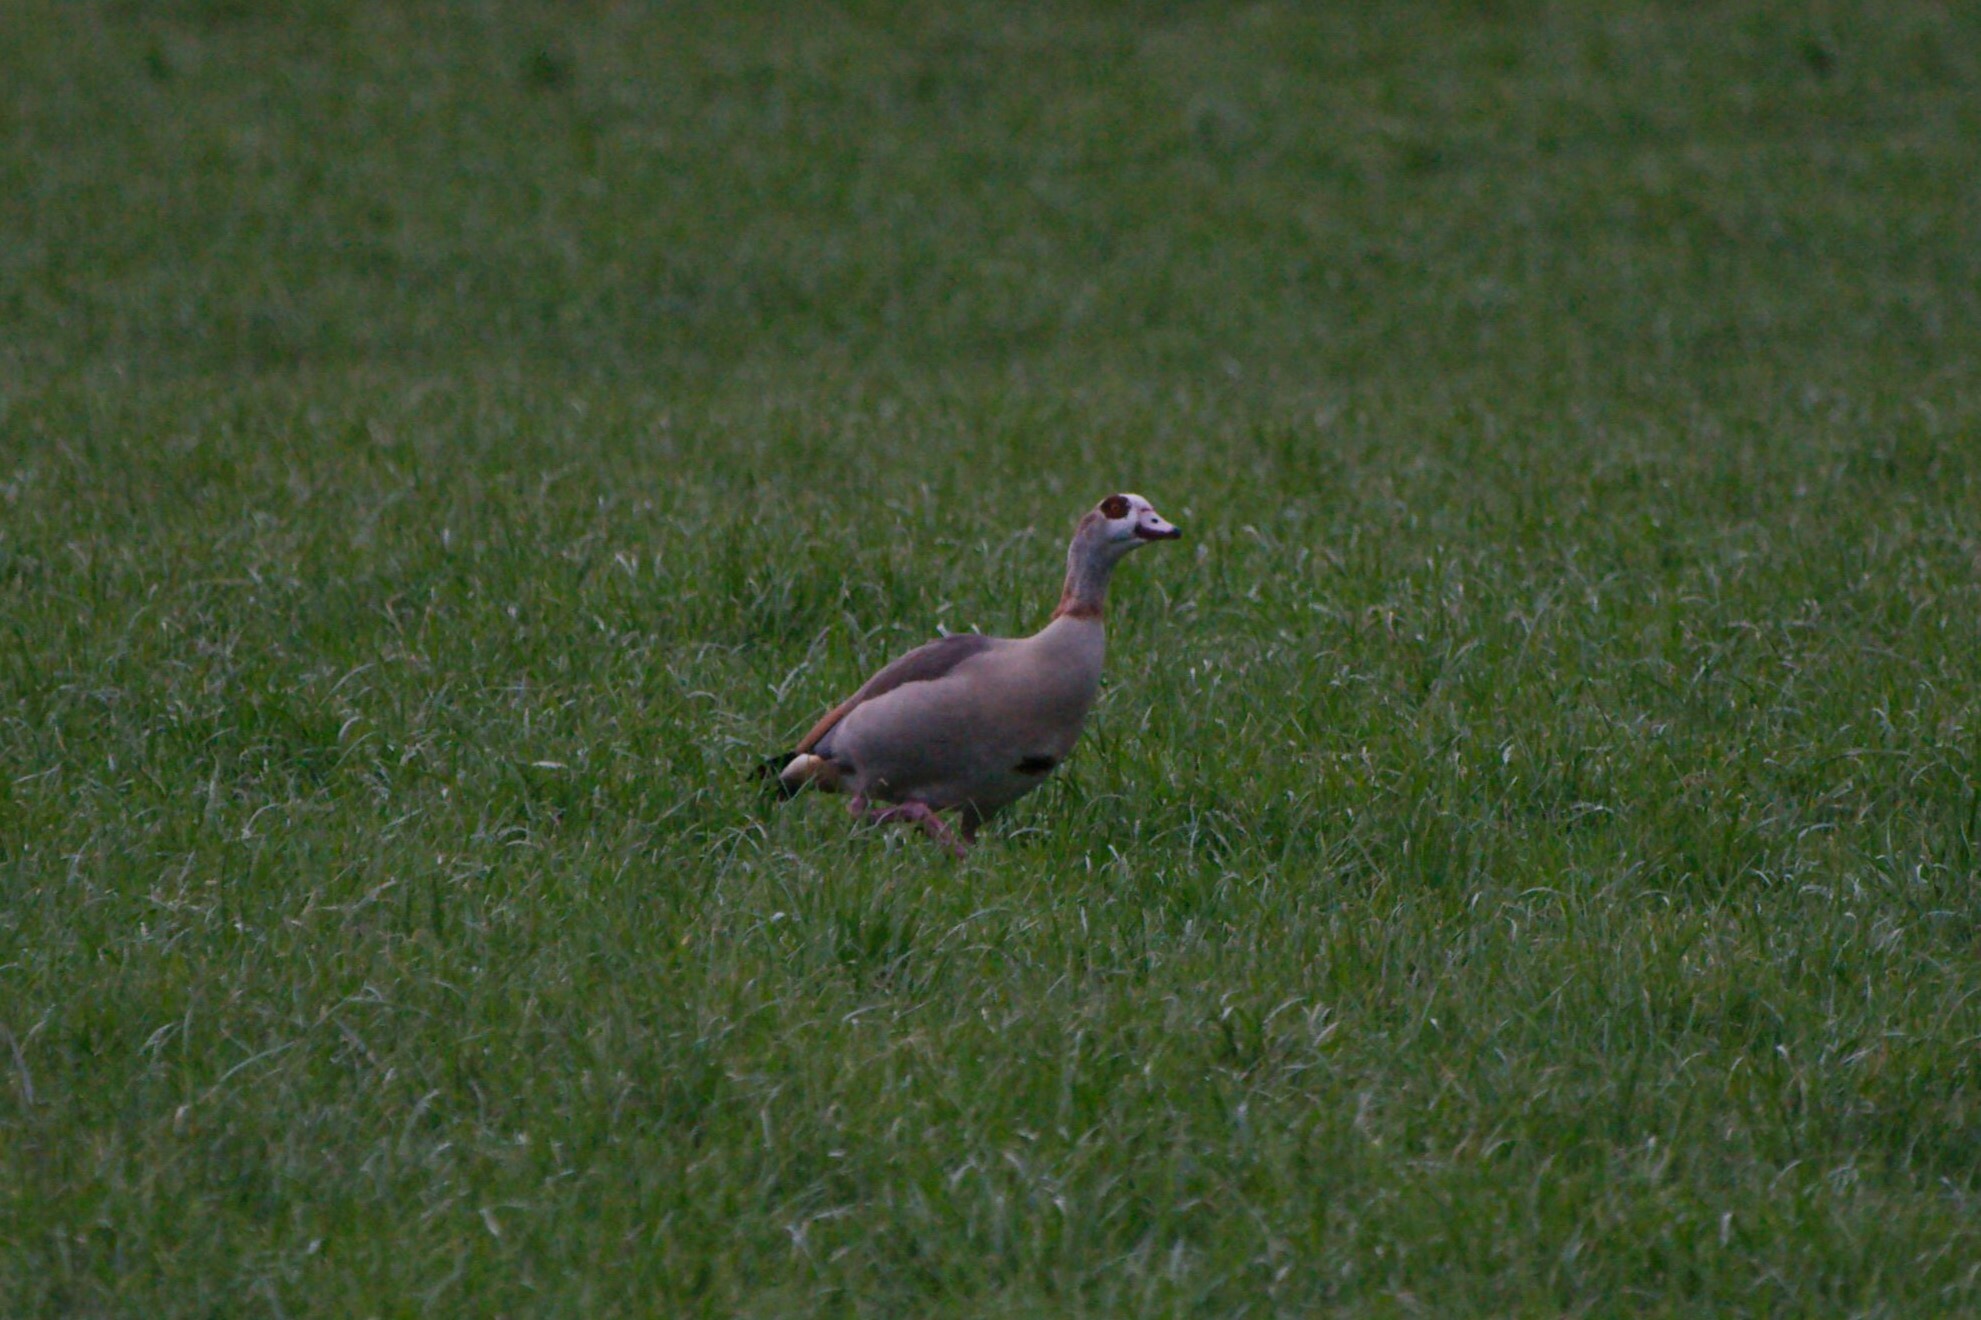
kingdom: Animalia
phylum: Chordata
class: Aves
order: Anseriformes
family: Anatidae
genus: Alopochen
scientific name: Alopochen aegyptiaca
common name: Egyptian goose
